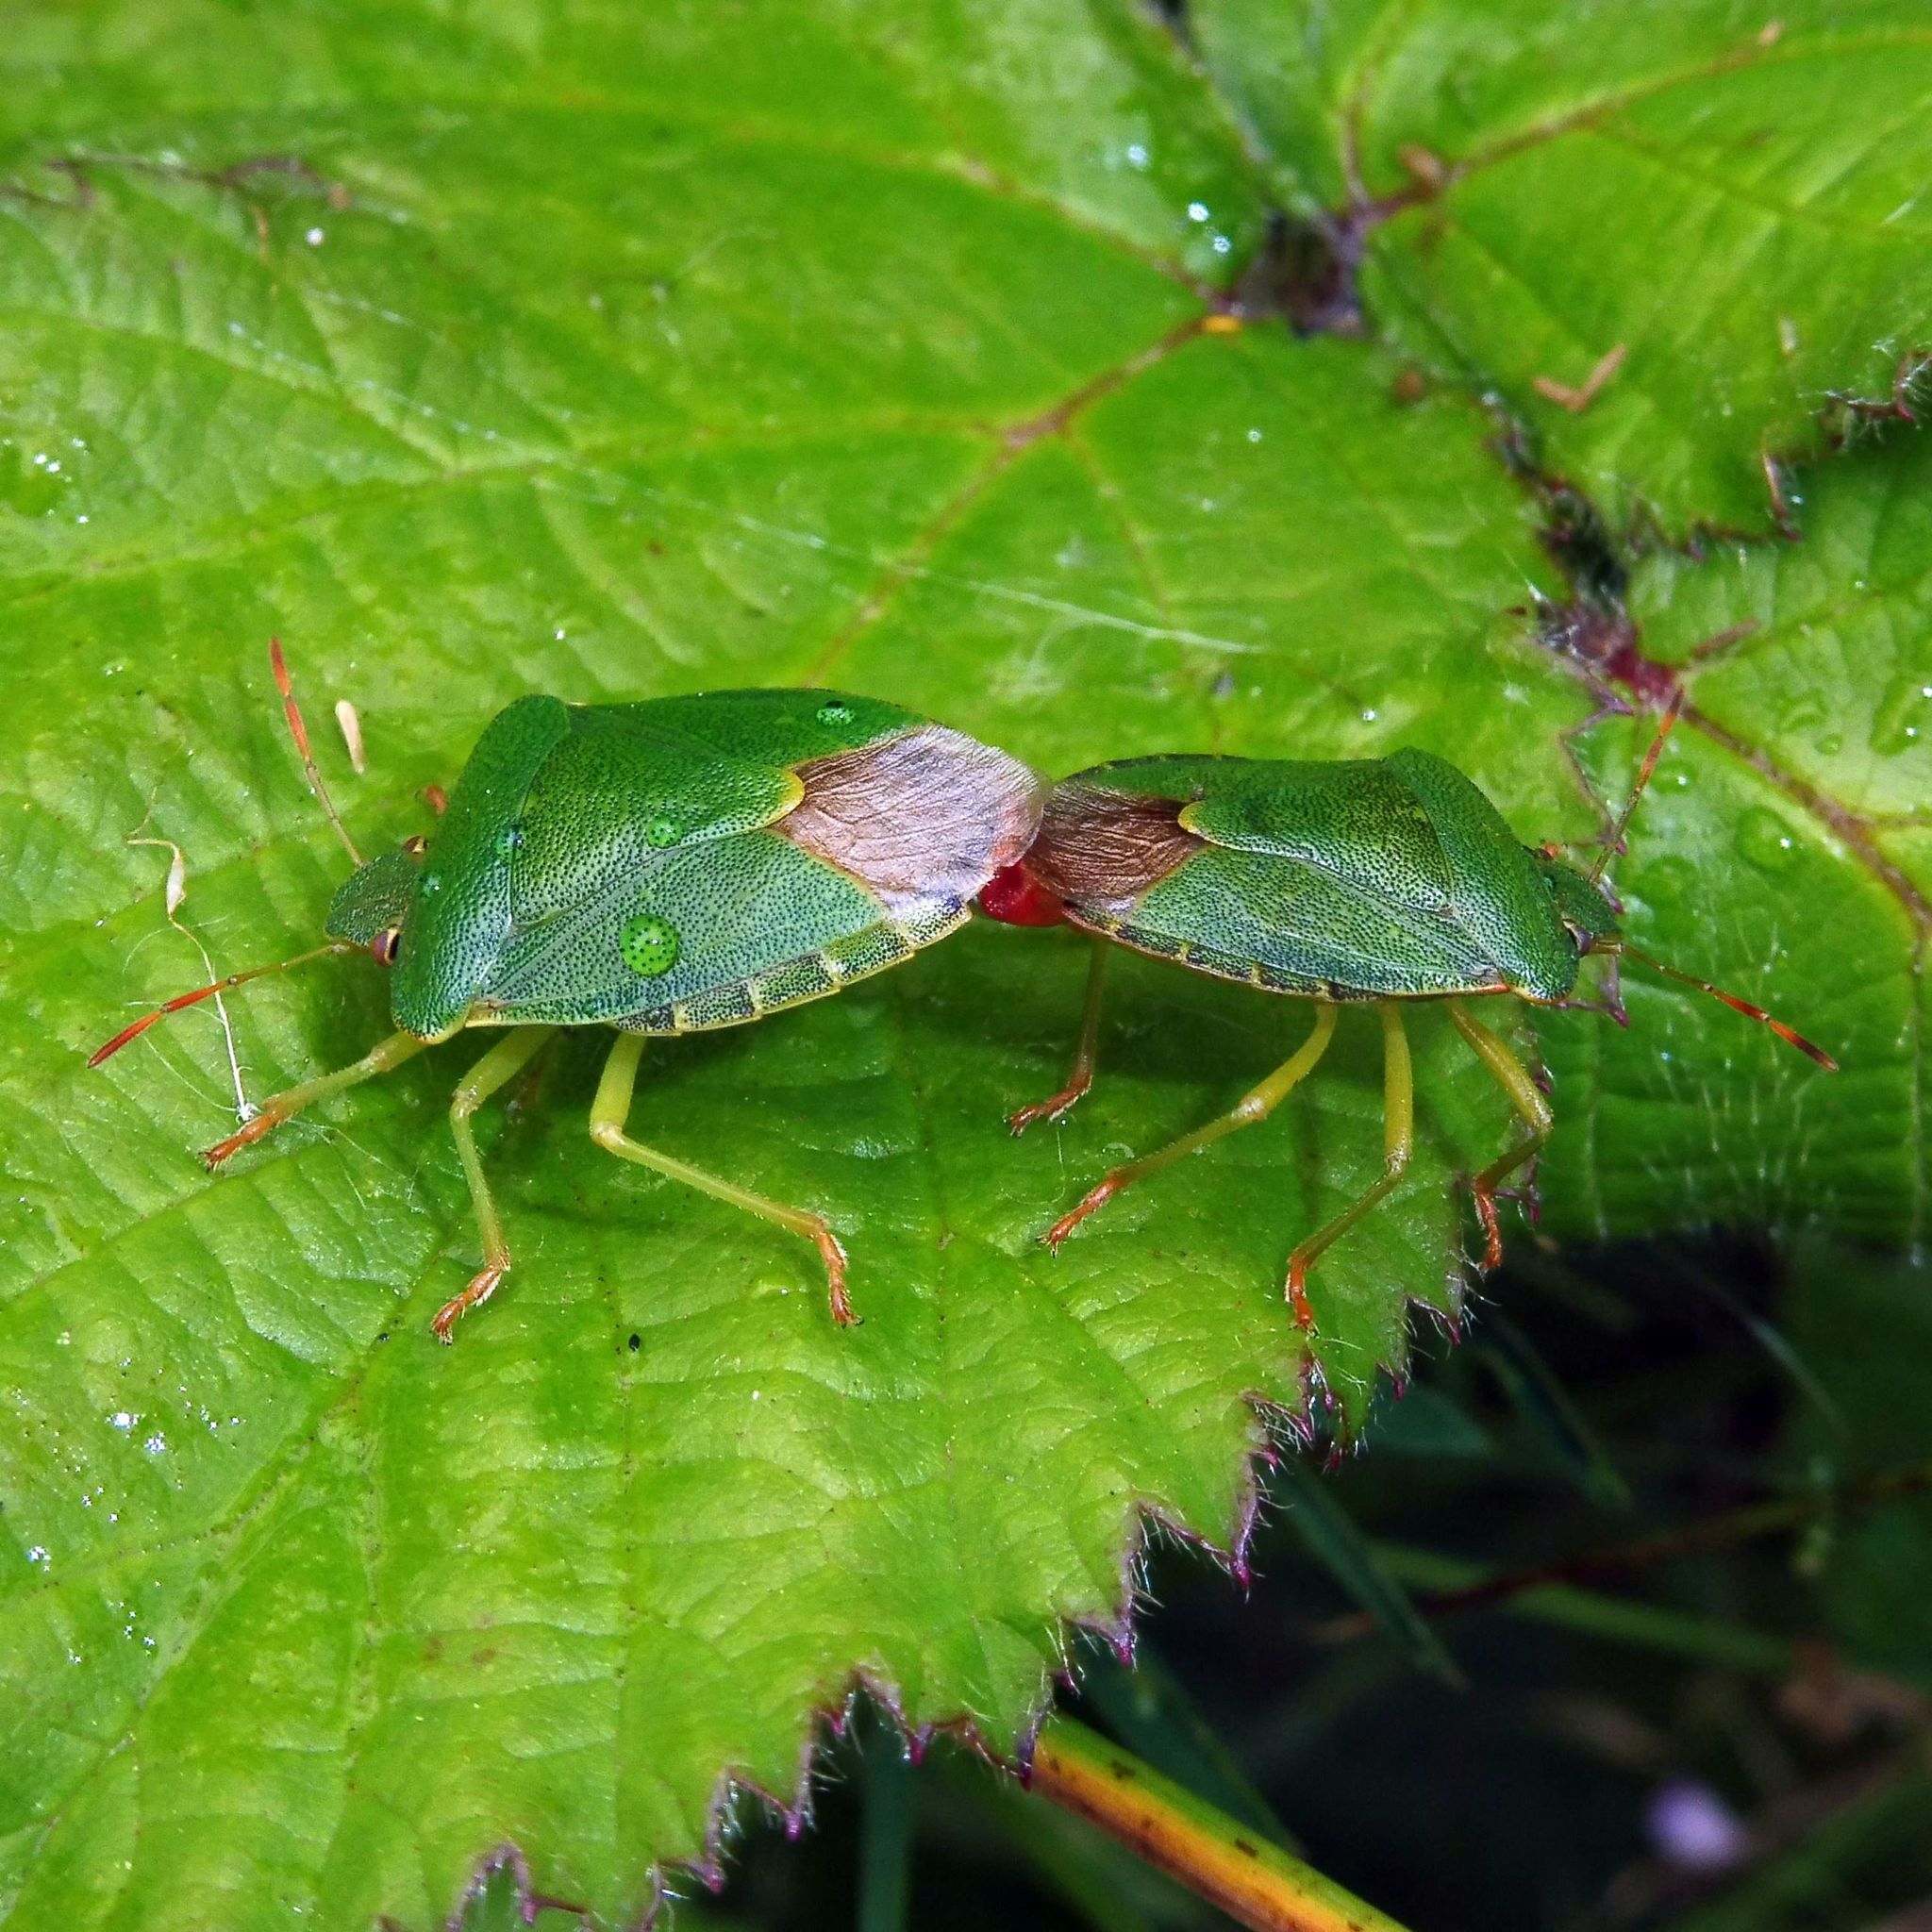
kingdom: Animalia
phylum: Arthropoda
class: Insecta
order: Hemiptera
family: Pentatomidae
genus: Palomena
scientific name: Palomena prasina
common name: Green shieldbug
